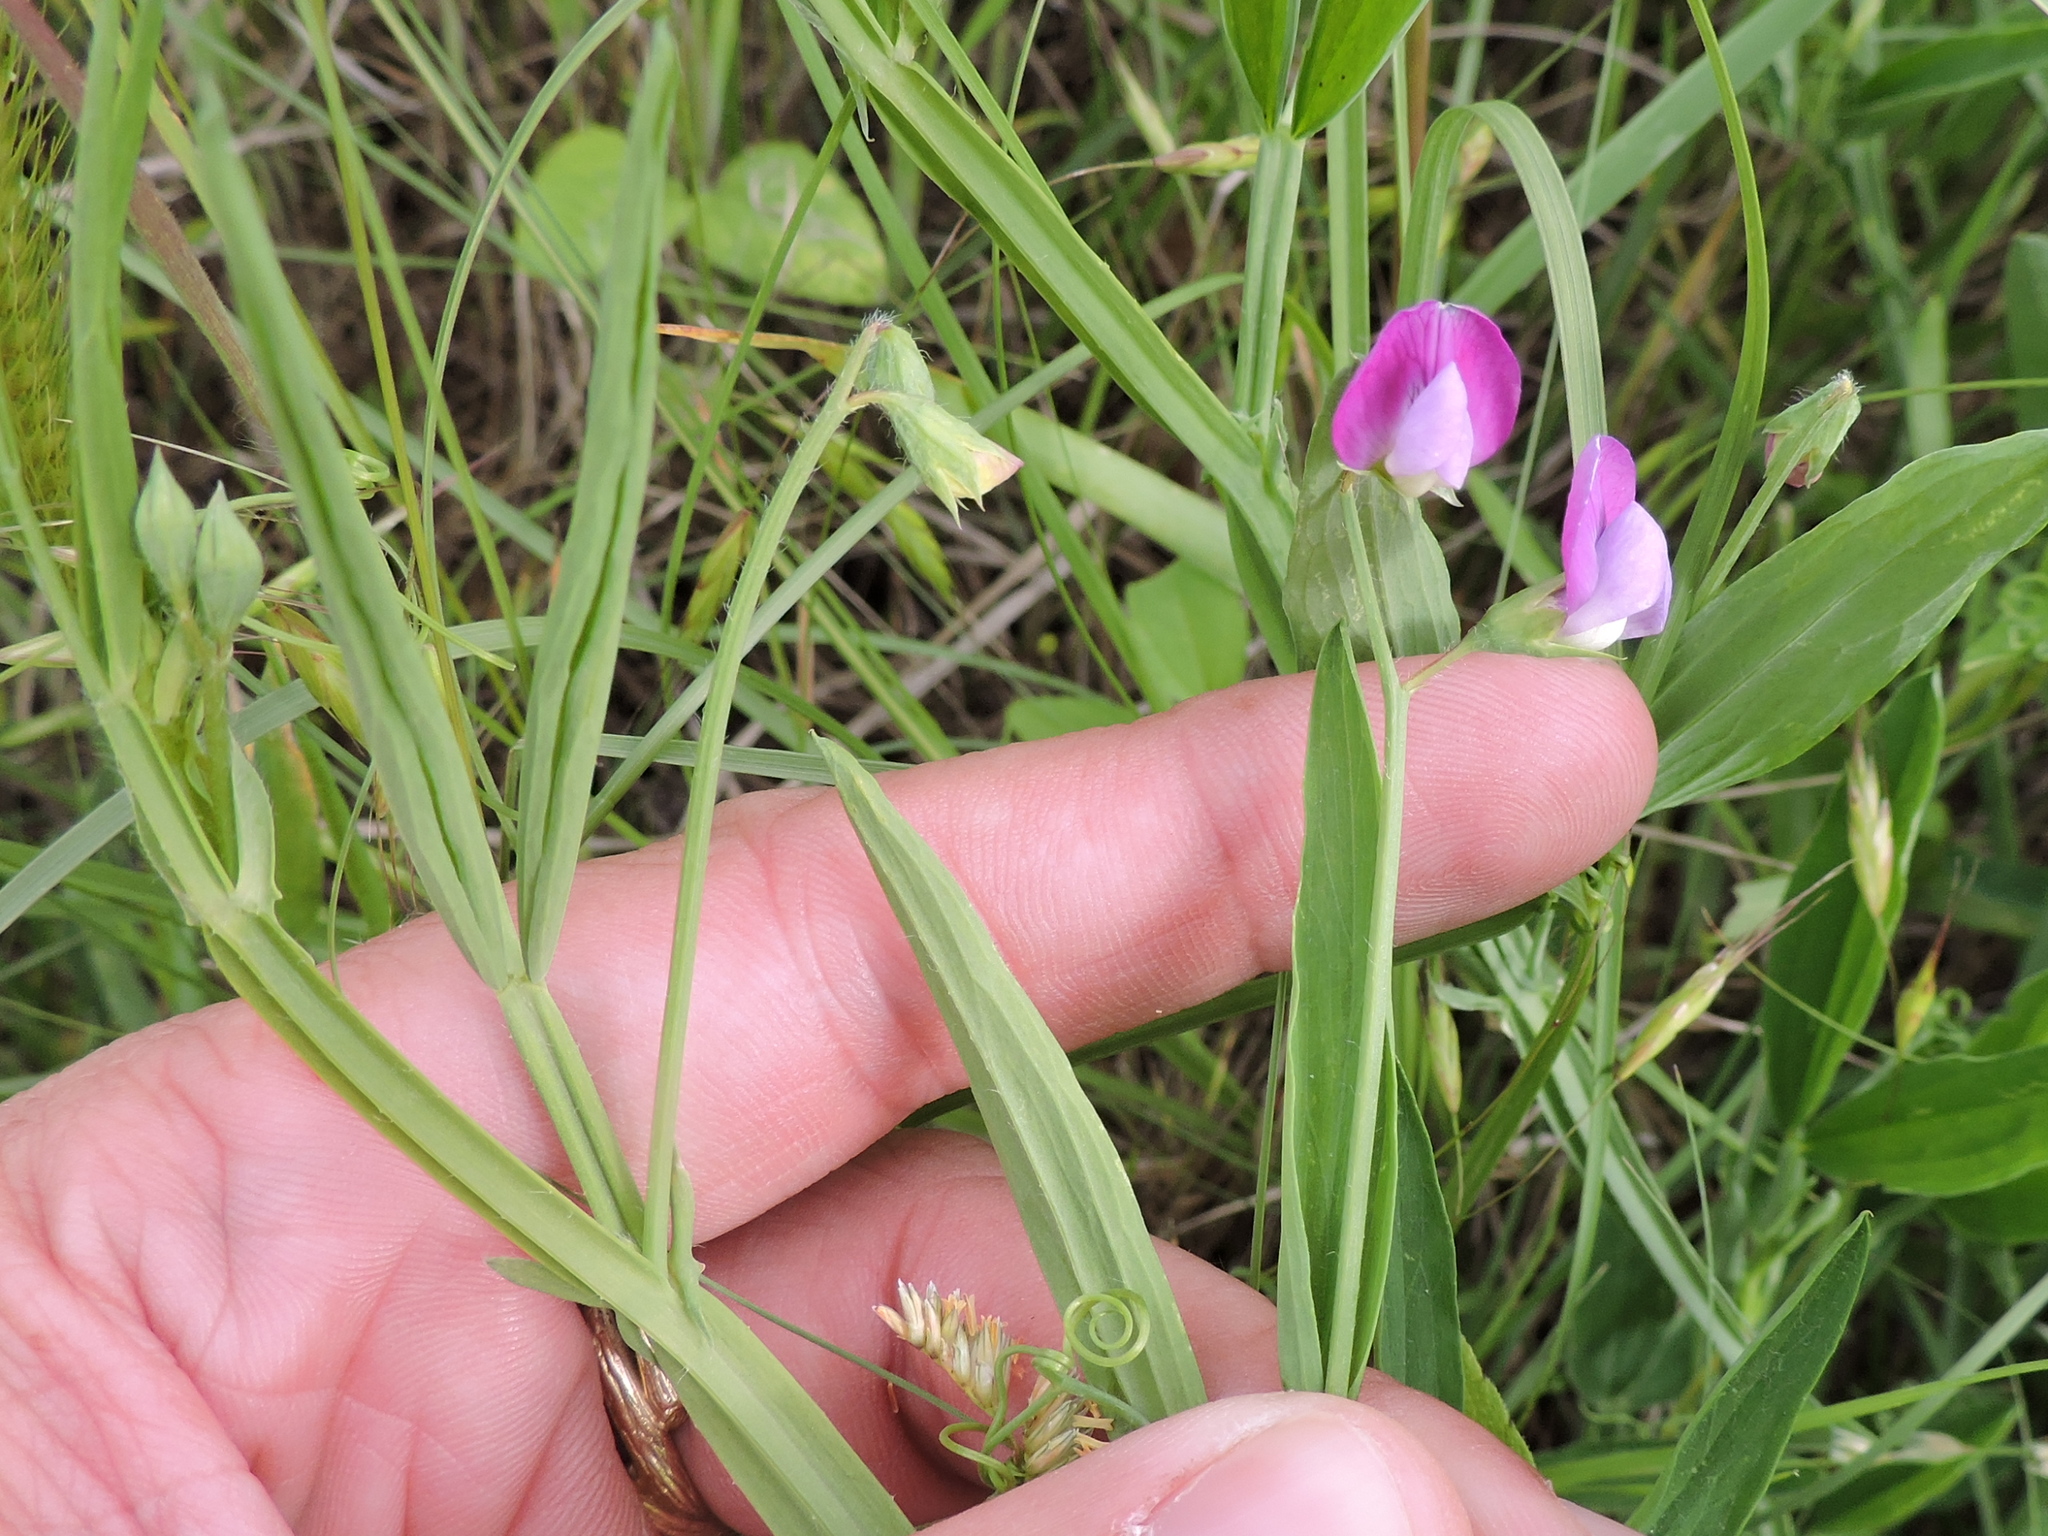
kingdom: Plantae
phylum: Tracheophyta
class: Magnoliopsida
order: Fabales
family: Fabaceae
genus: Lathyrus
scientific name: Lathyrus hirsutus
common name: Hairy vetchling
